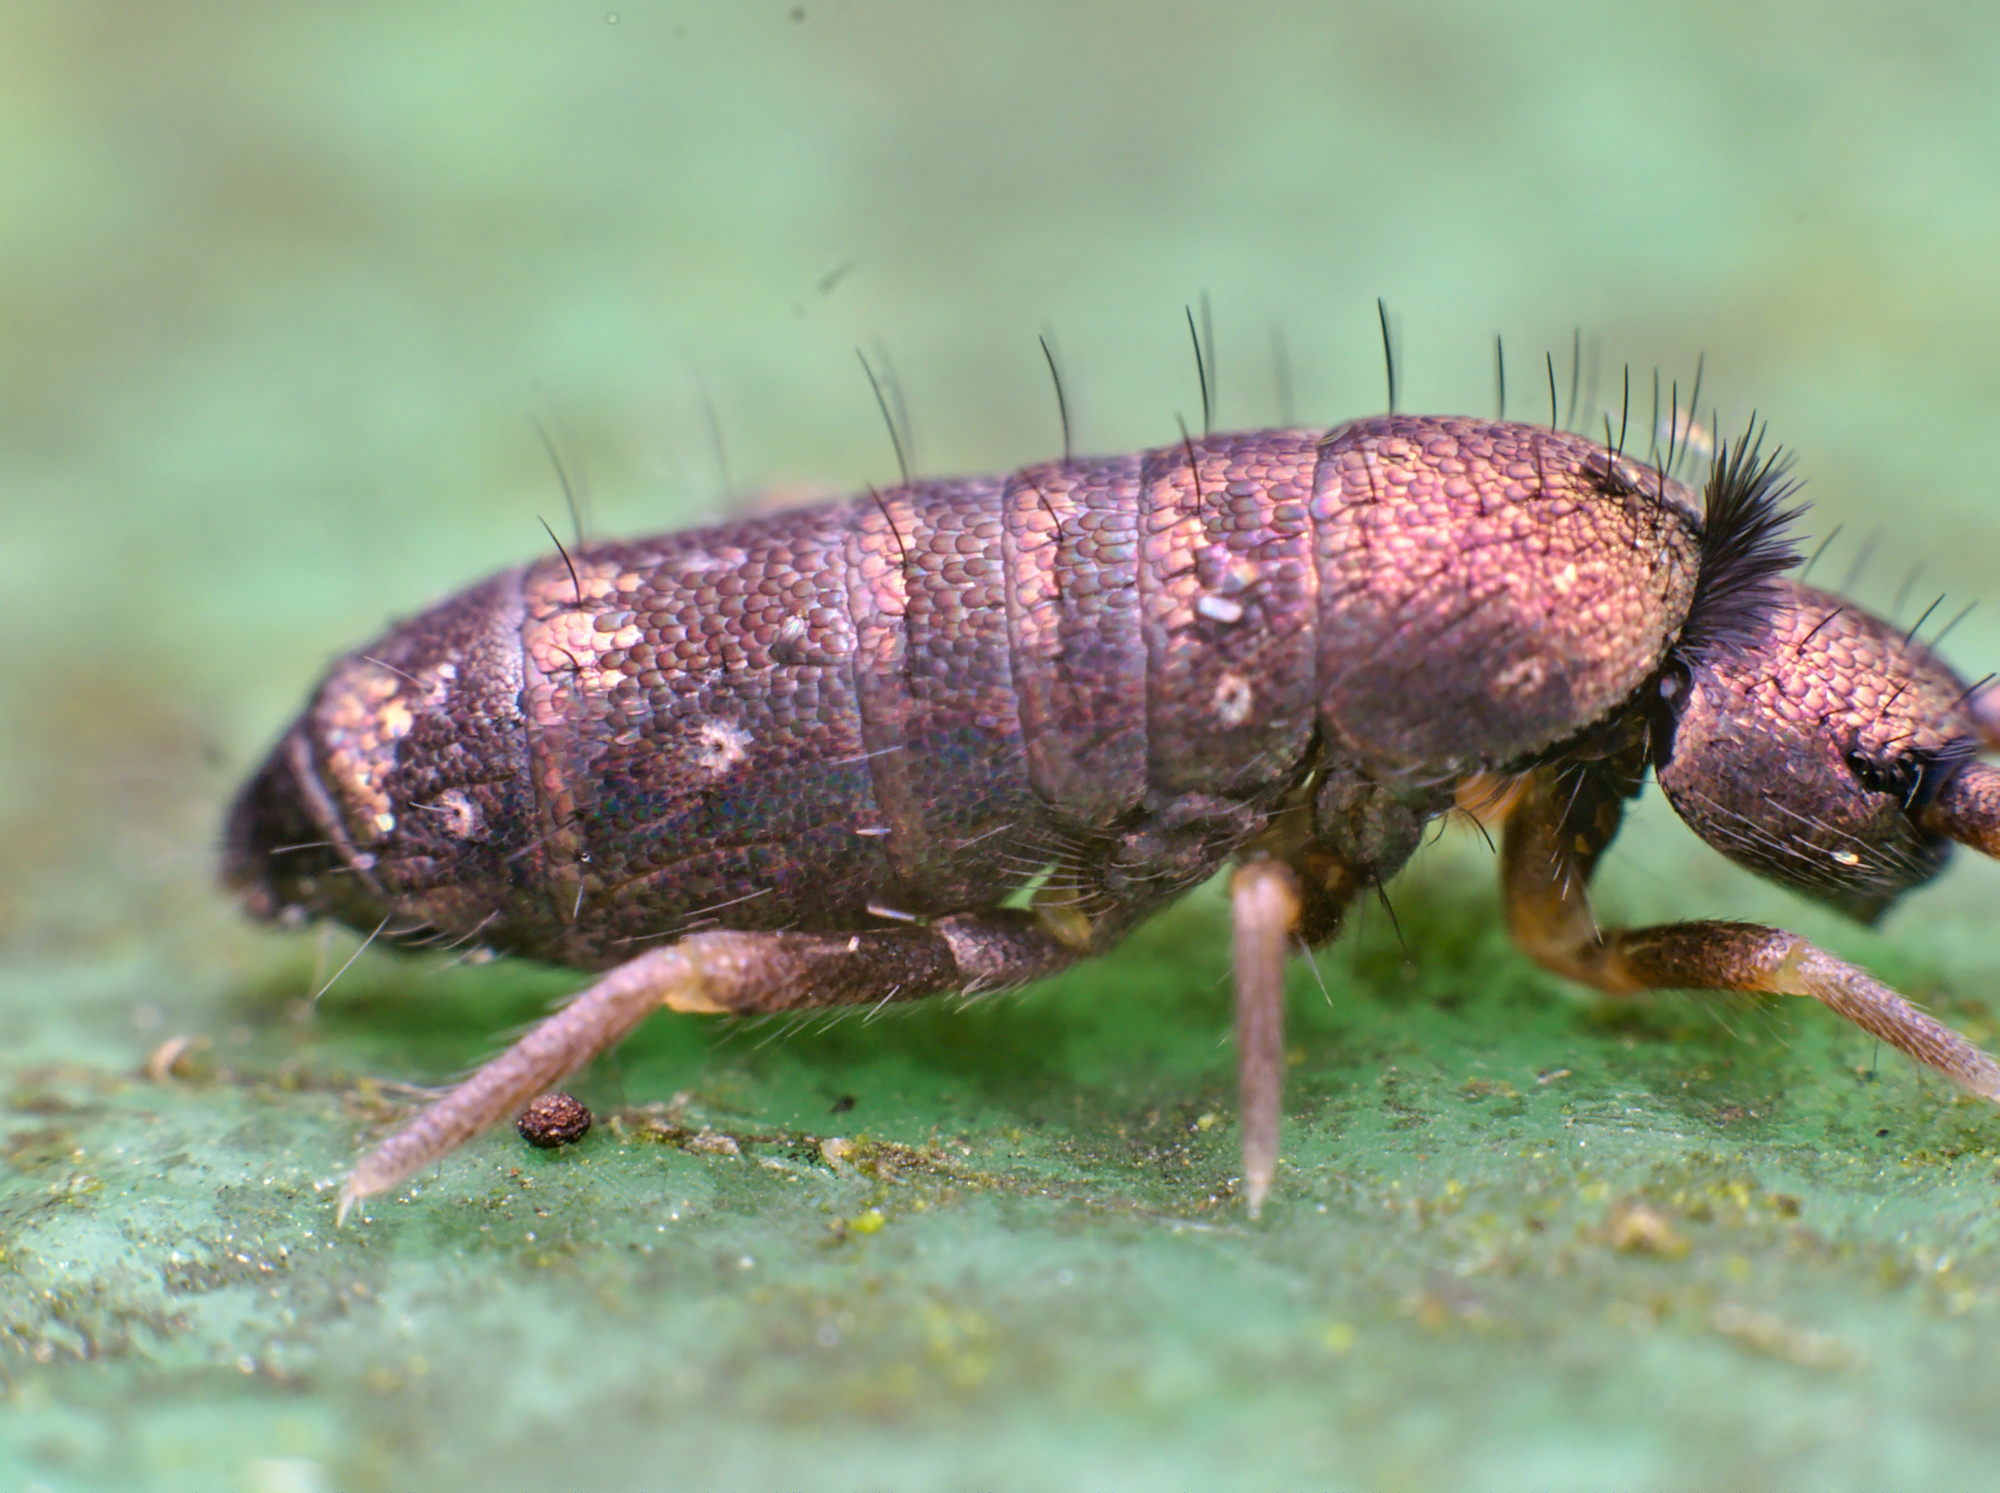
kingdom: Animalia
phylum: Arthropoda
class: Collembola
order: Entomobryomorpha
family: Tomoceridae
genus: Tomocerus
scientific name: Tomocerus vulgaris
